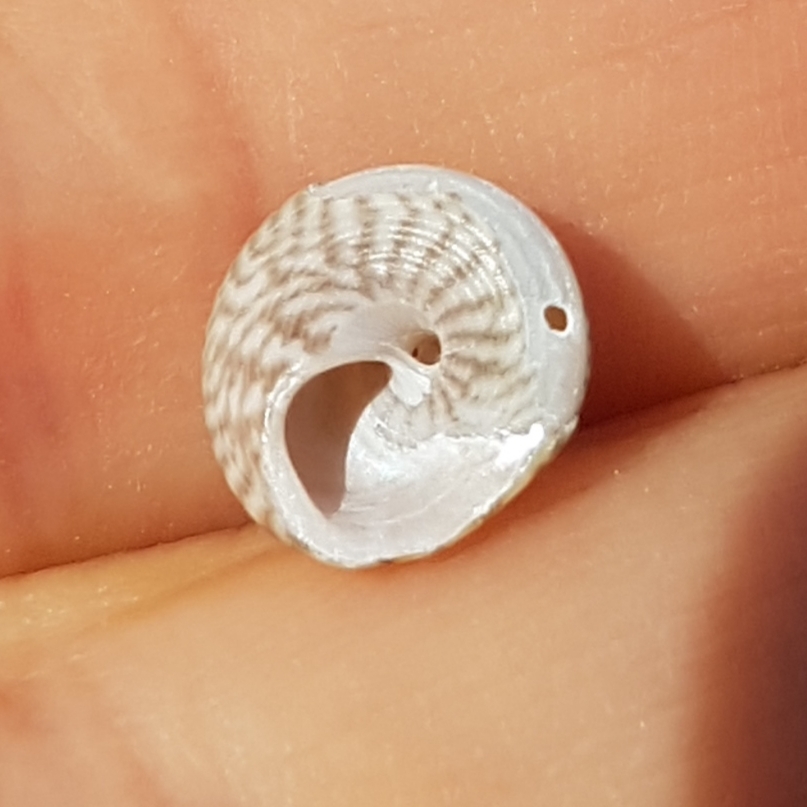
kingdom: Animalia
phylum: Mollusca
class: Gastropoda
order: Trochida
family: Trochidae
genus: Steromphala
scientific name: Steromphala cineraria
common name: Grey top shell
